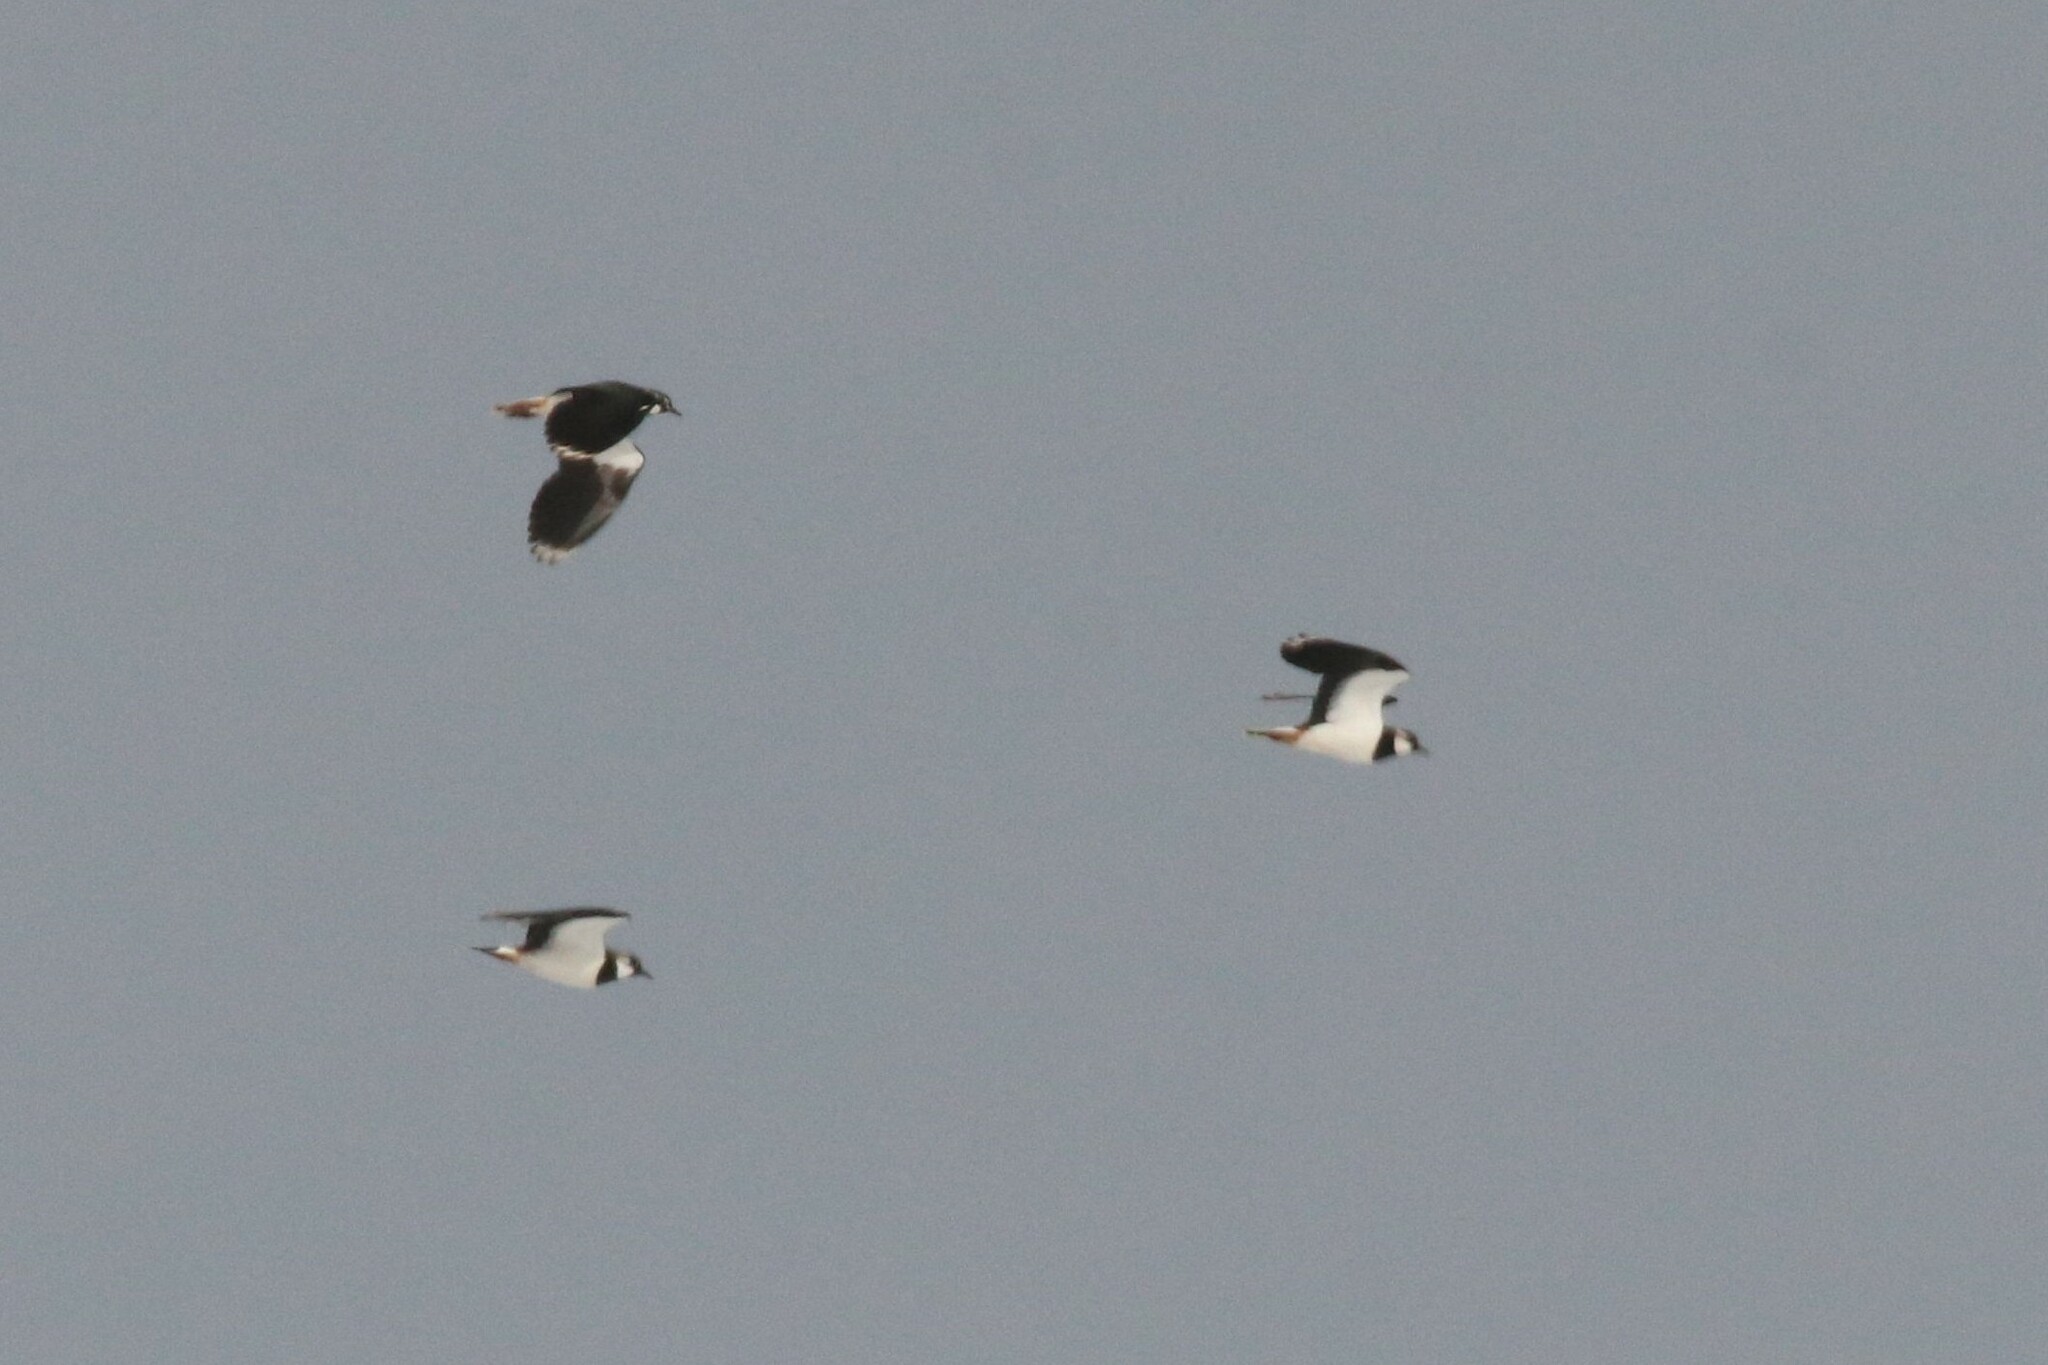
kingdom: Animalia
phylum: Chordata
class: Aves
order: Charadriiformes
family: Charadriidae
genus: Vanellus
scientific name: Vanellus vanellus
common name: Northern lapwing
